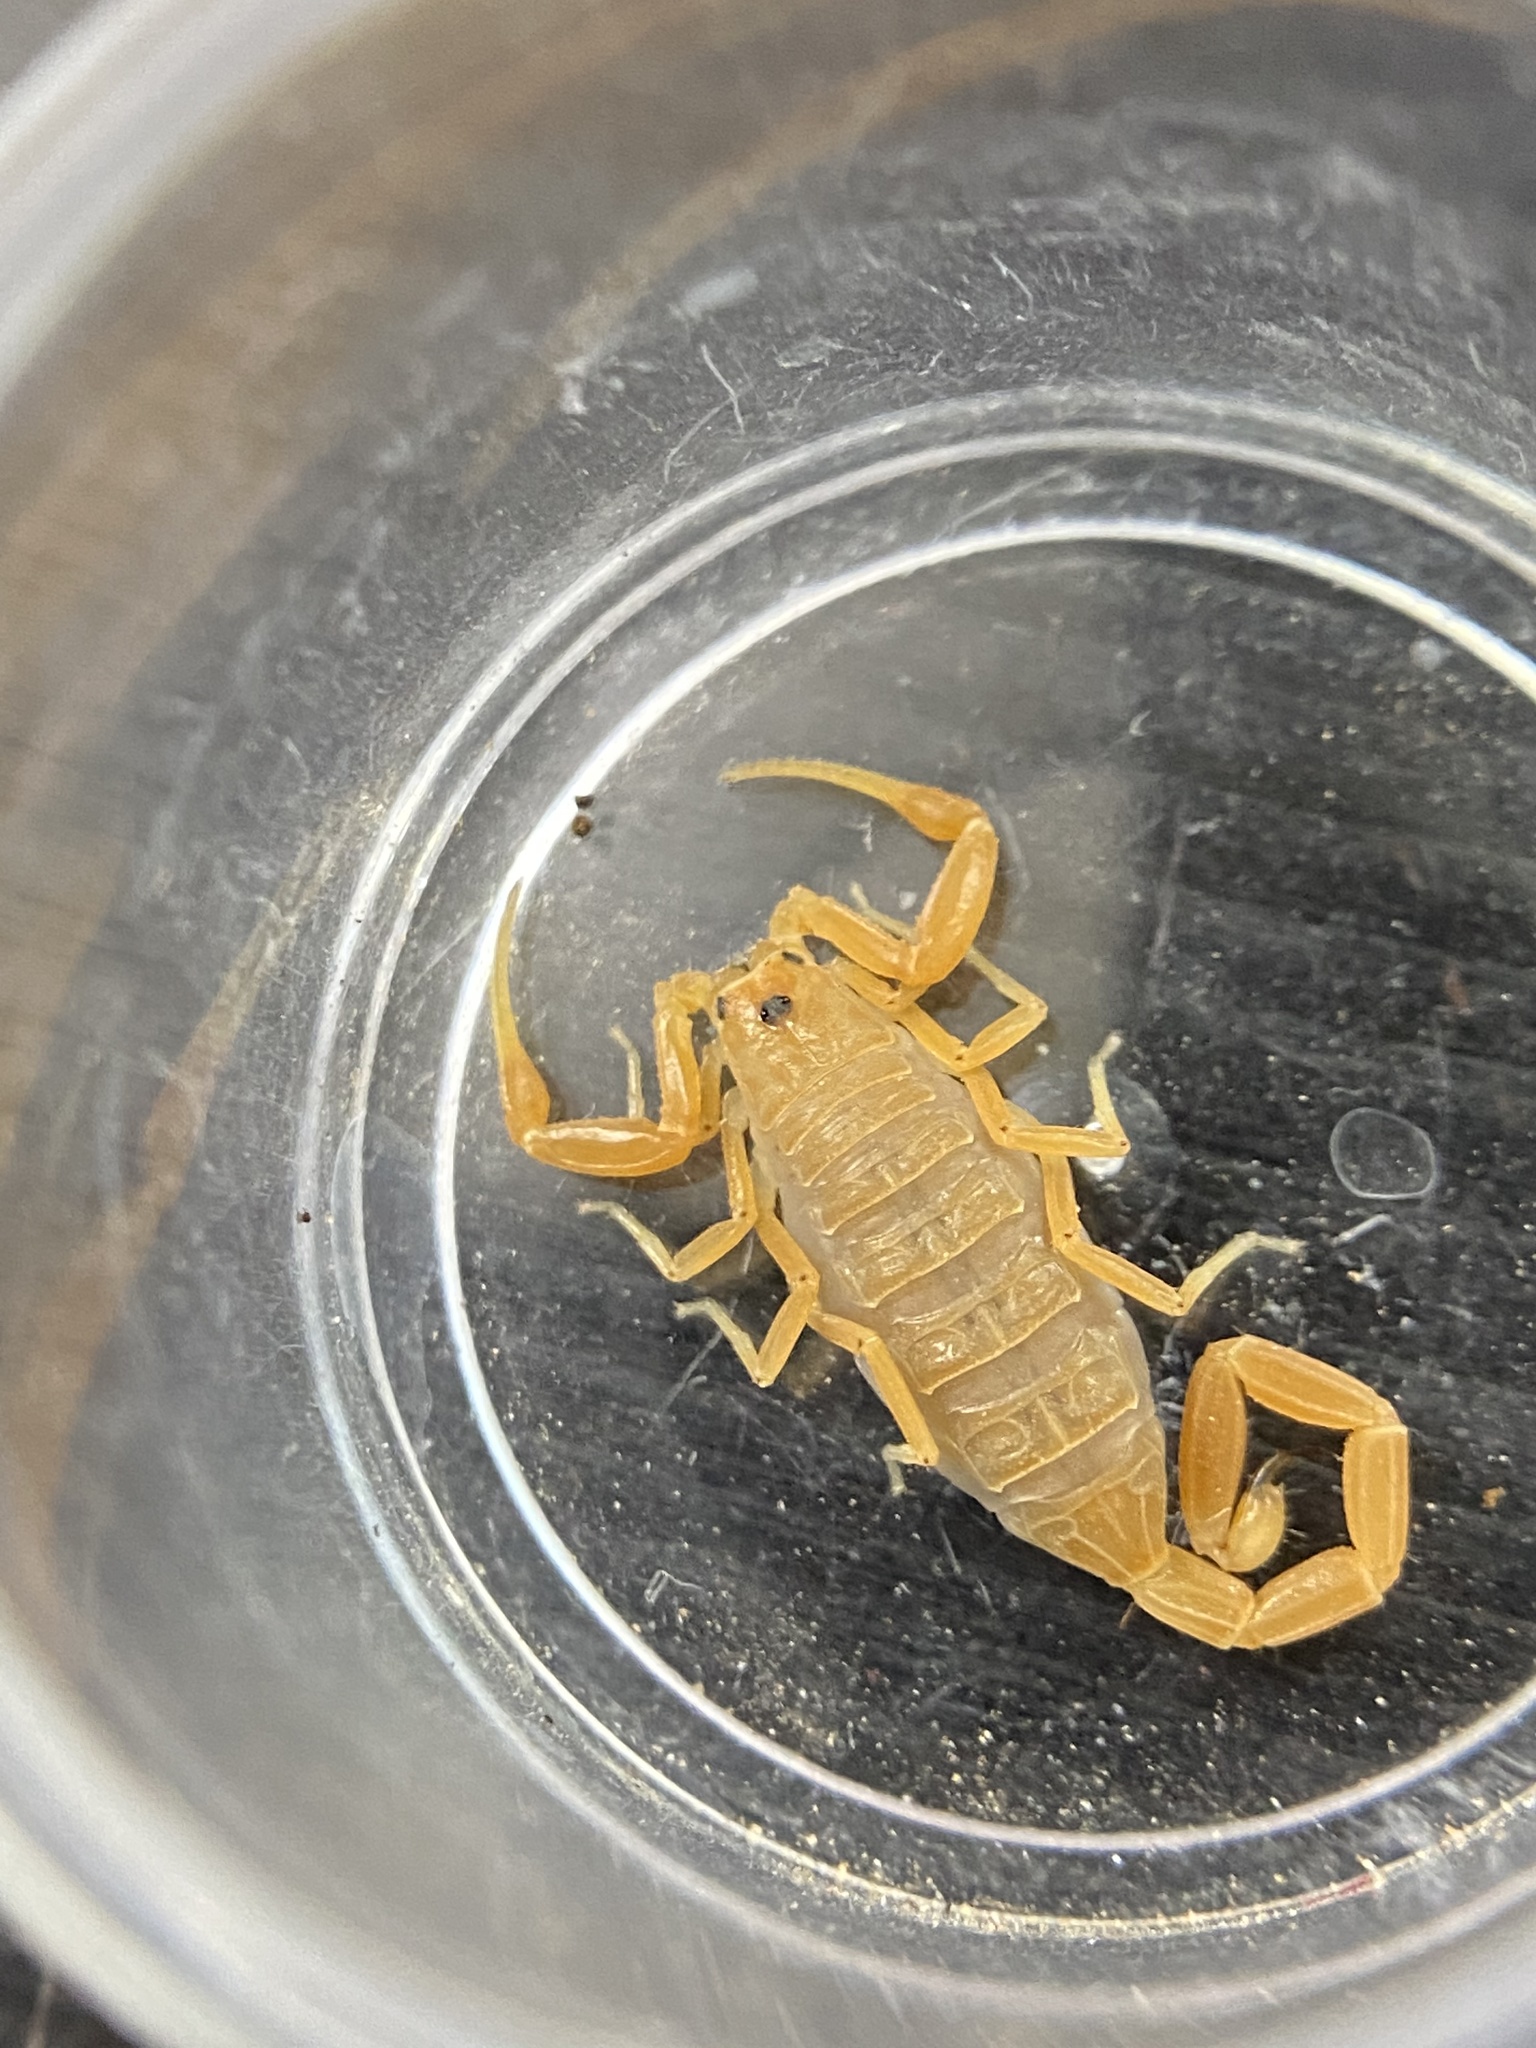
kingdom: Animalia
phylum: Arthropoda
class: Arachnida
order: Scorpiones
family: Buthidae
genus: Centruroides
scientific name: Centruroides sculpturatus
